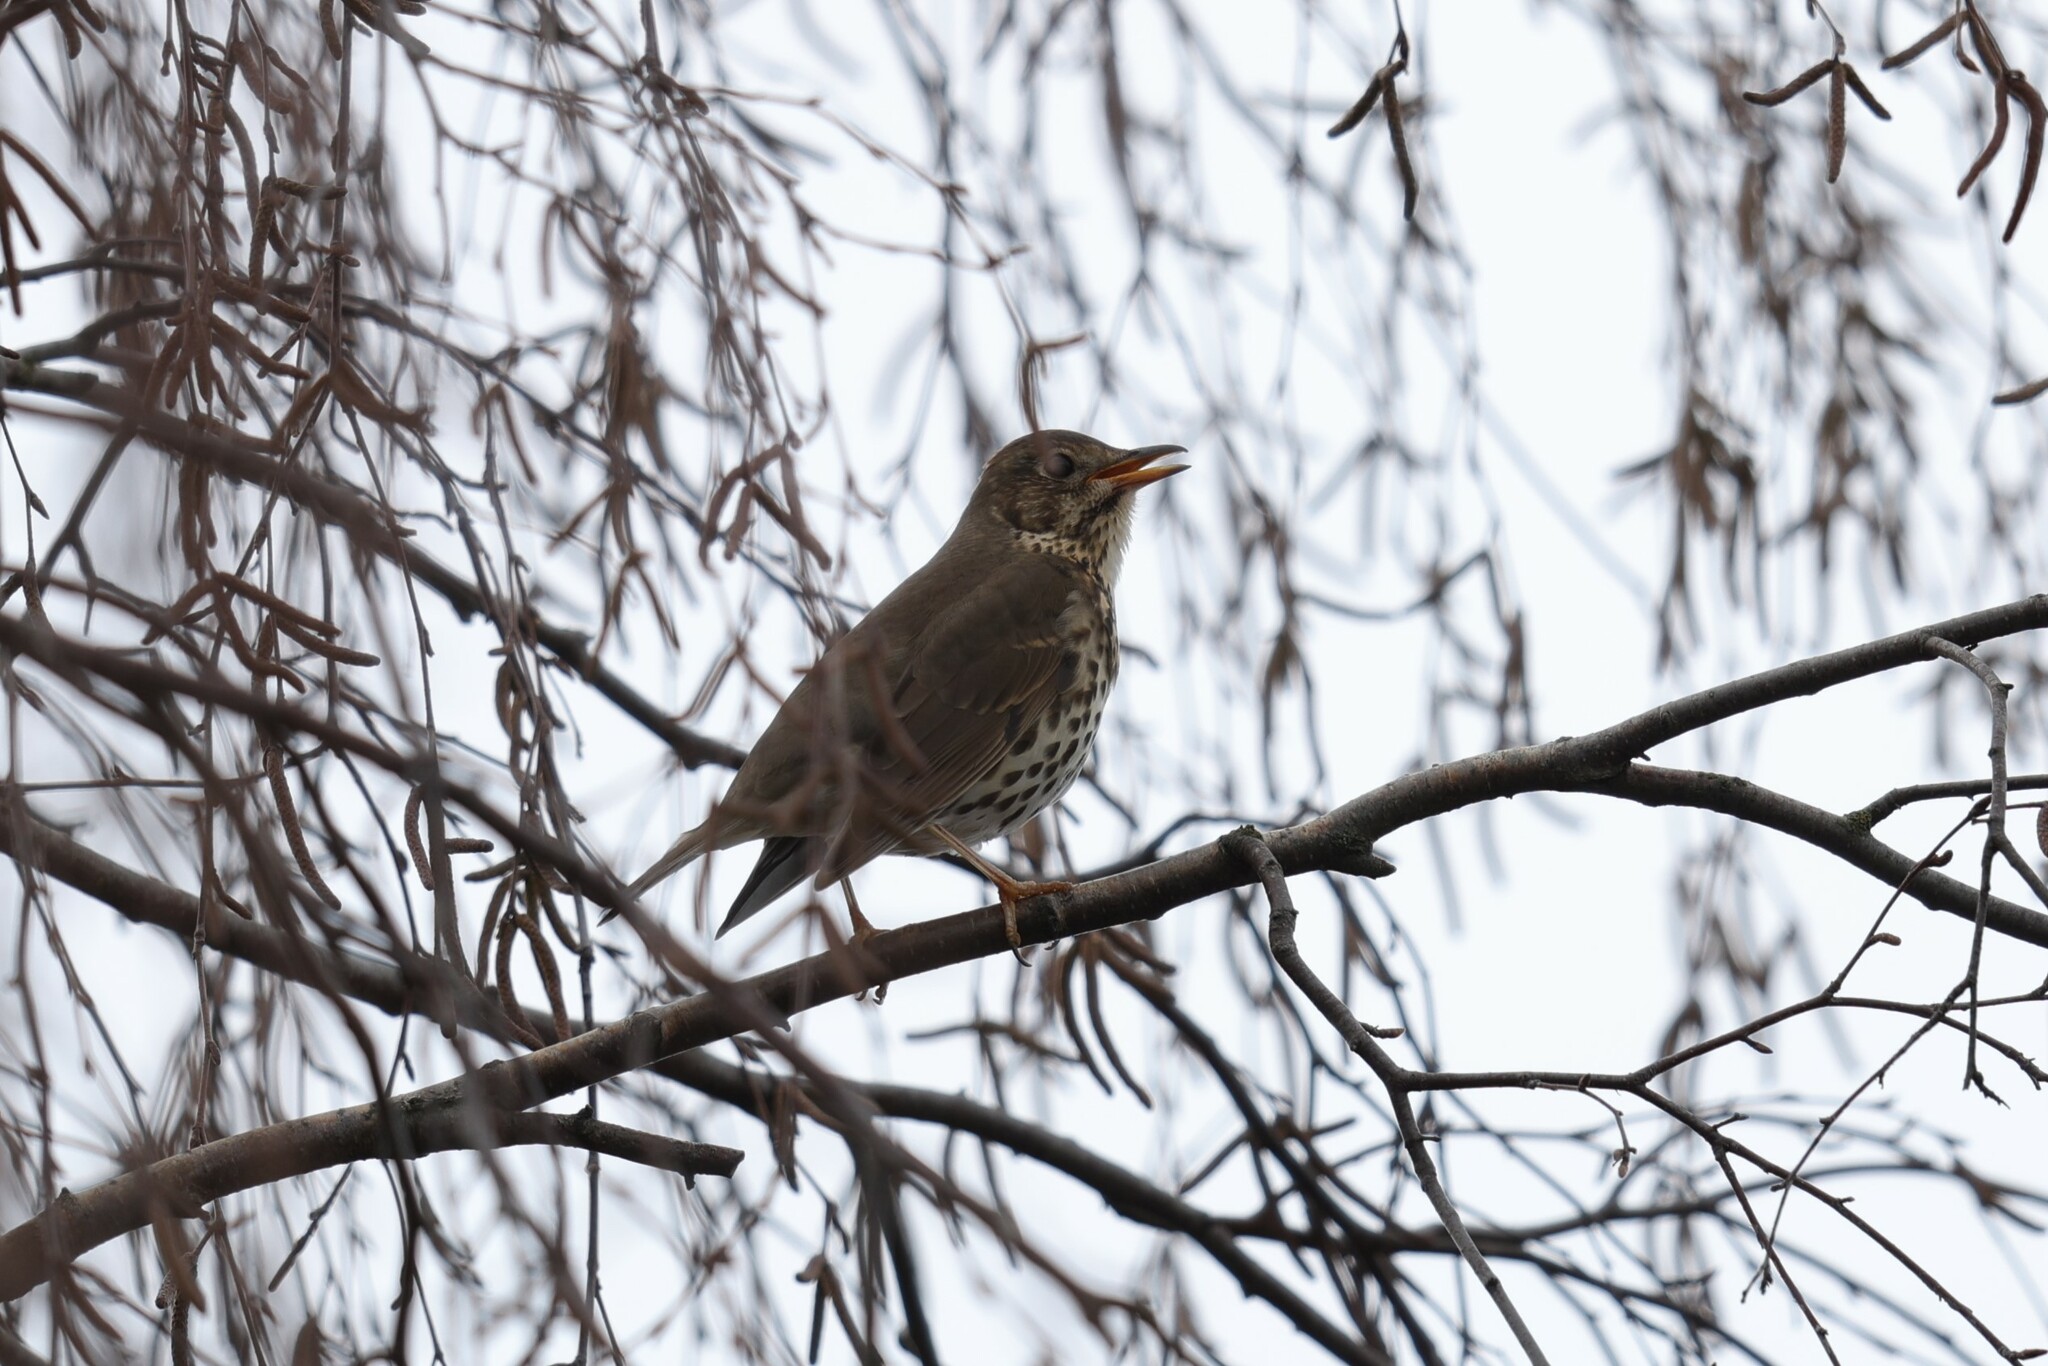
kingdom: Animalia
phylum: Chordata
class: Aves
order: Passeriformes
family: Turdidae
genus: Turdus
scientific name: Turdus philomelos
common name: Song thrush
